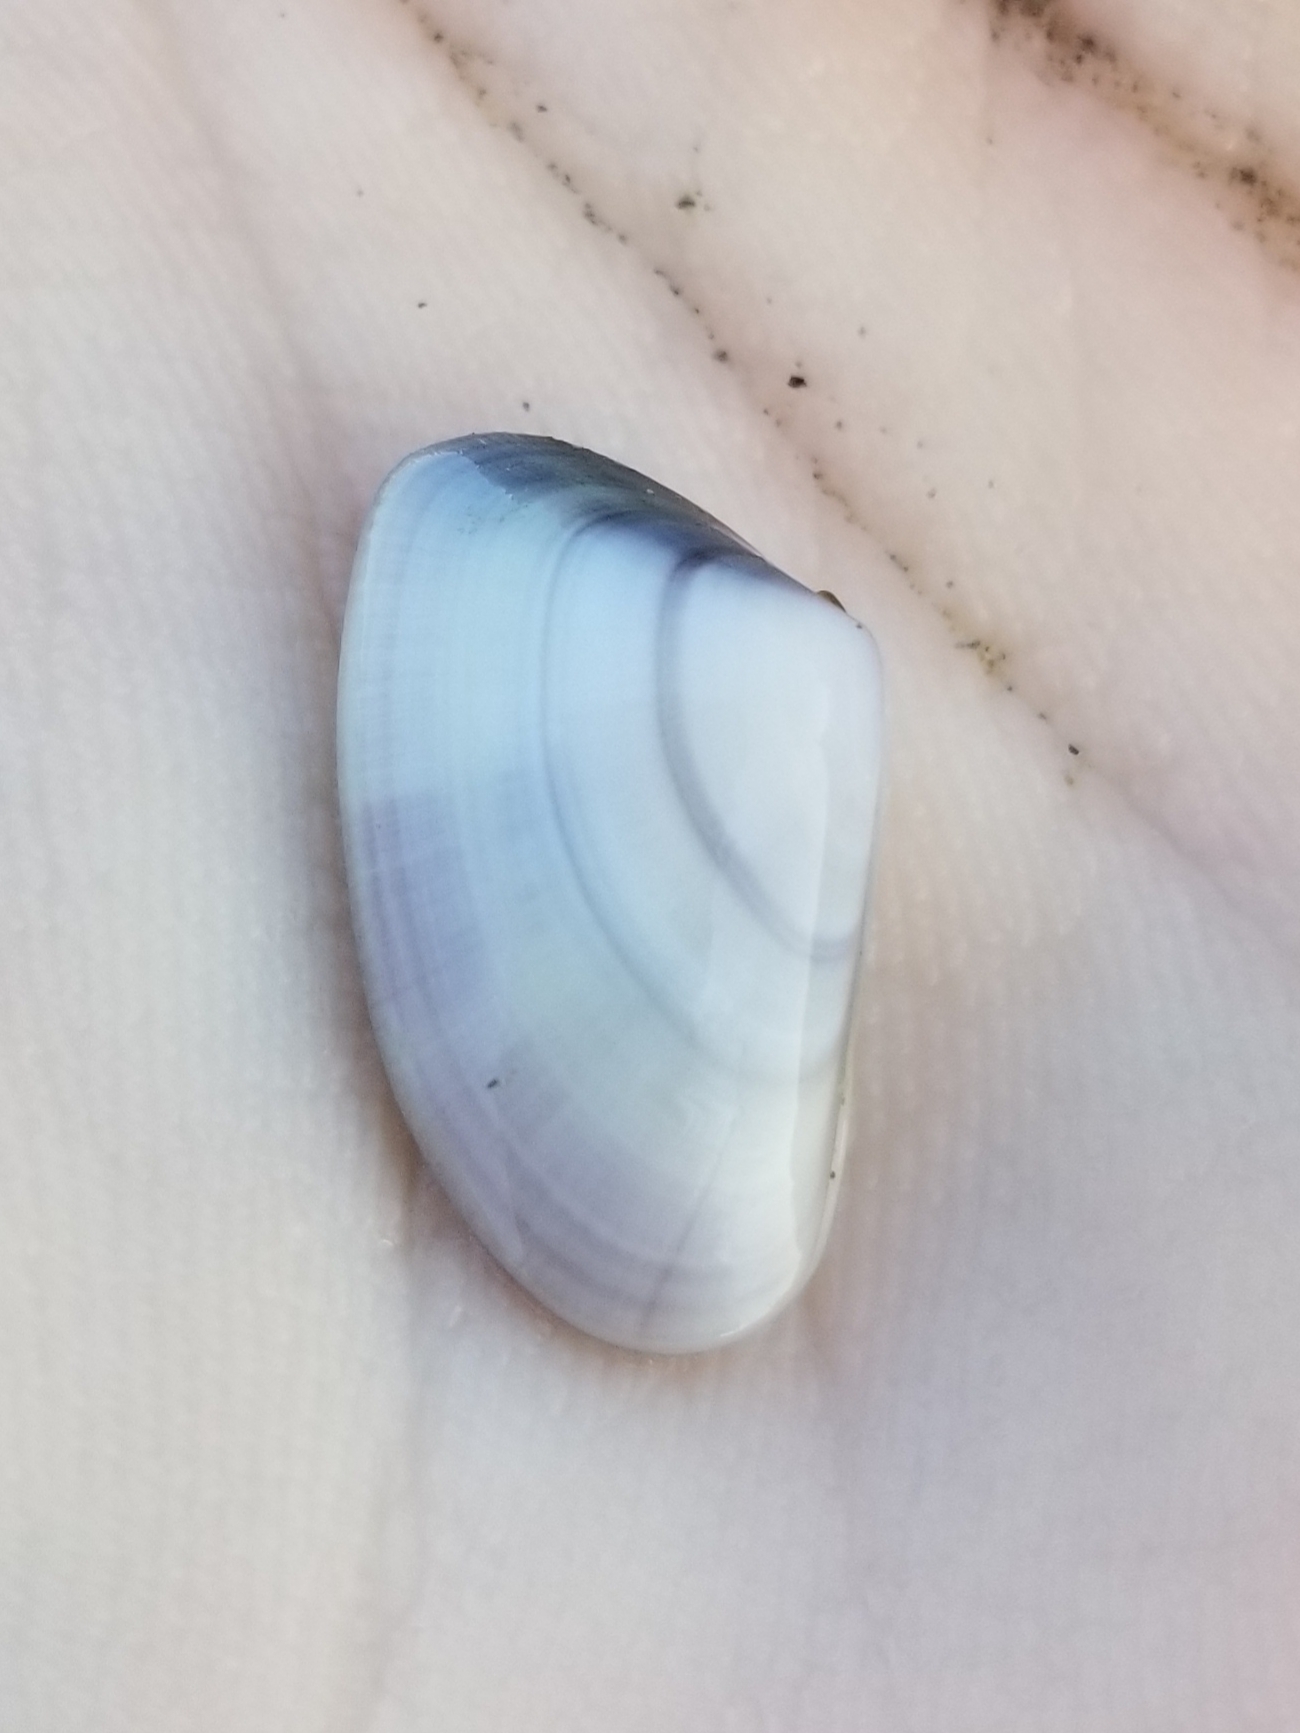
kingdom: Animalia
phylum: Mollusca
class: Bivalvia
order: Cardiida
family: Donacidae
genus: Donax
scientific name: Donax trunculus
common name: Truncate donax
